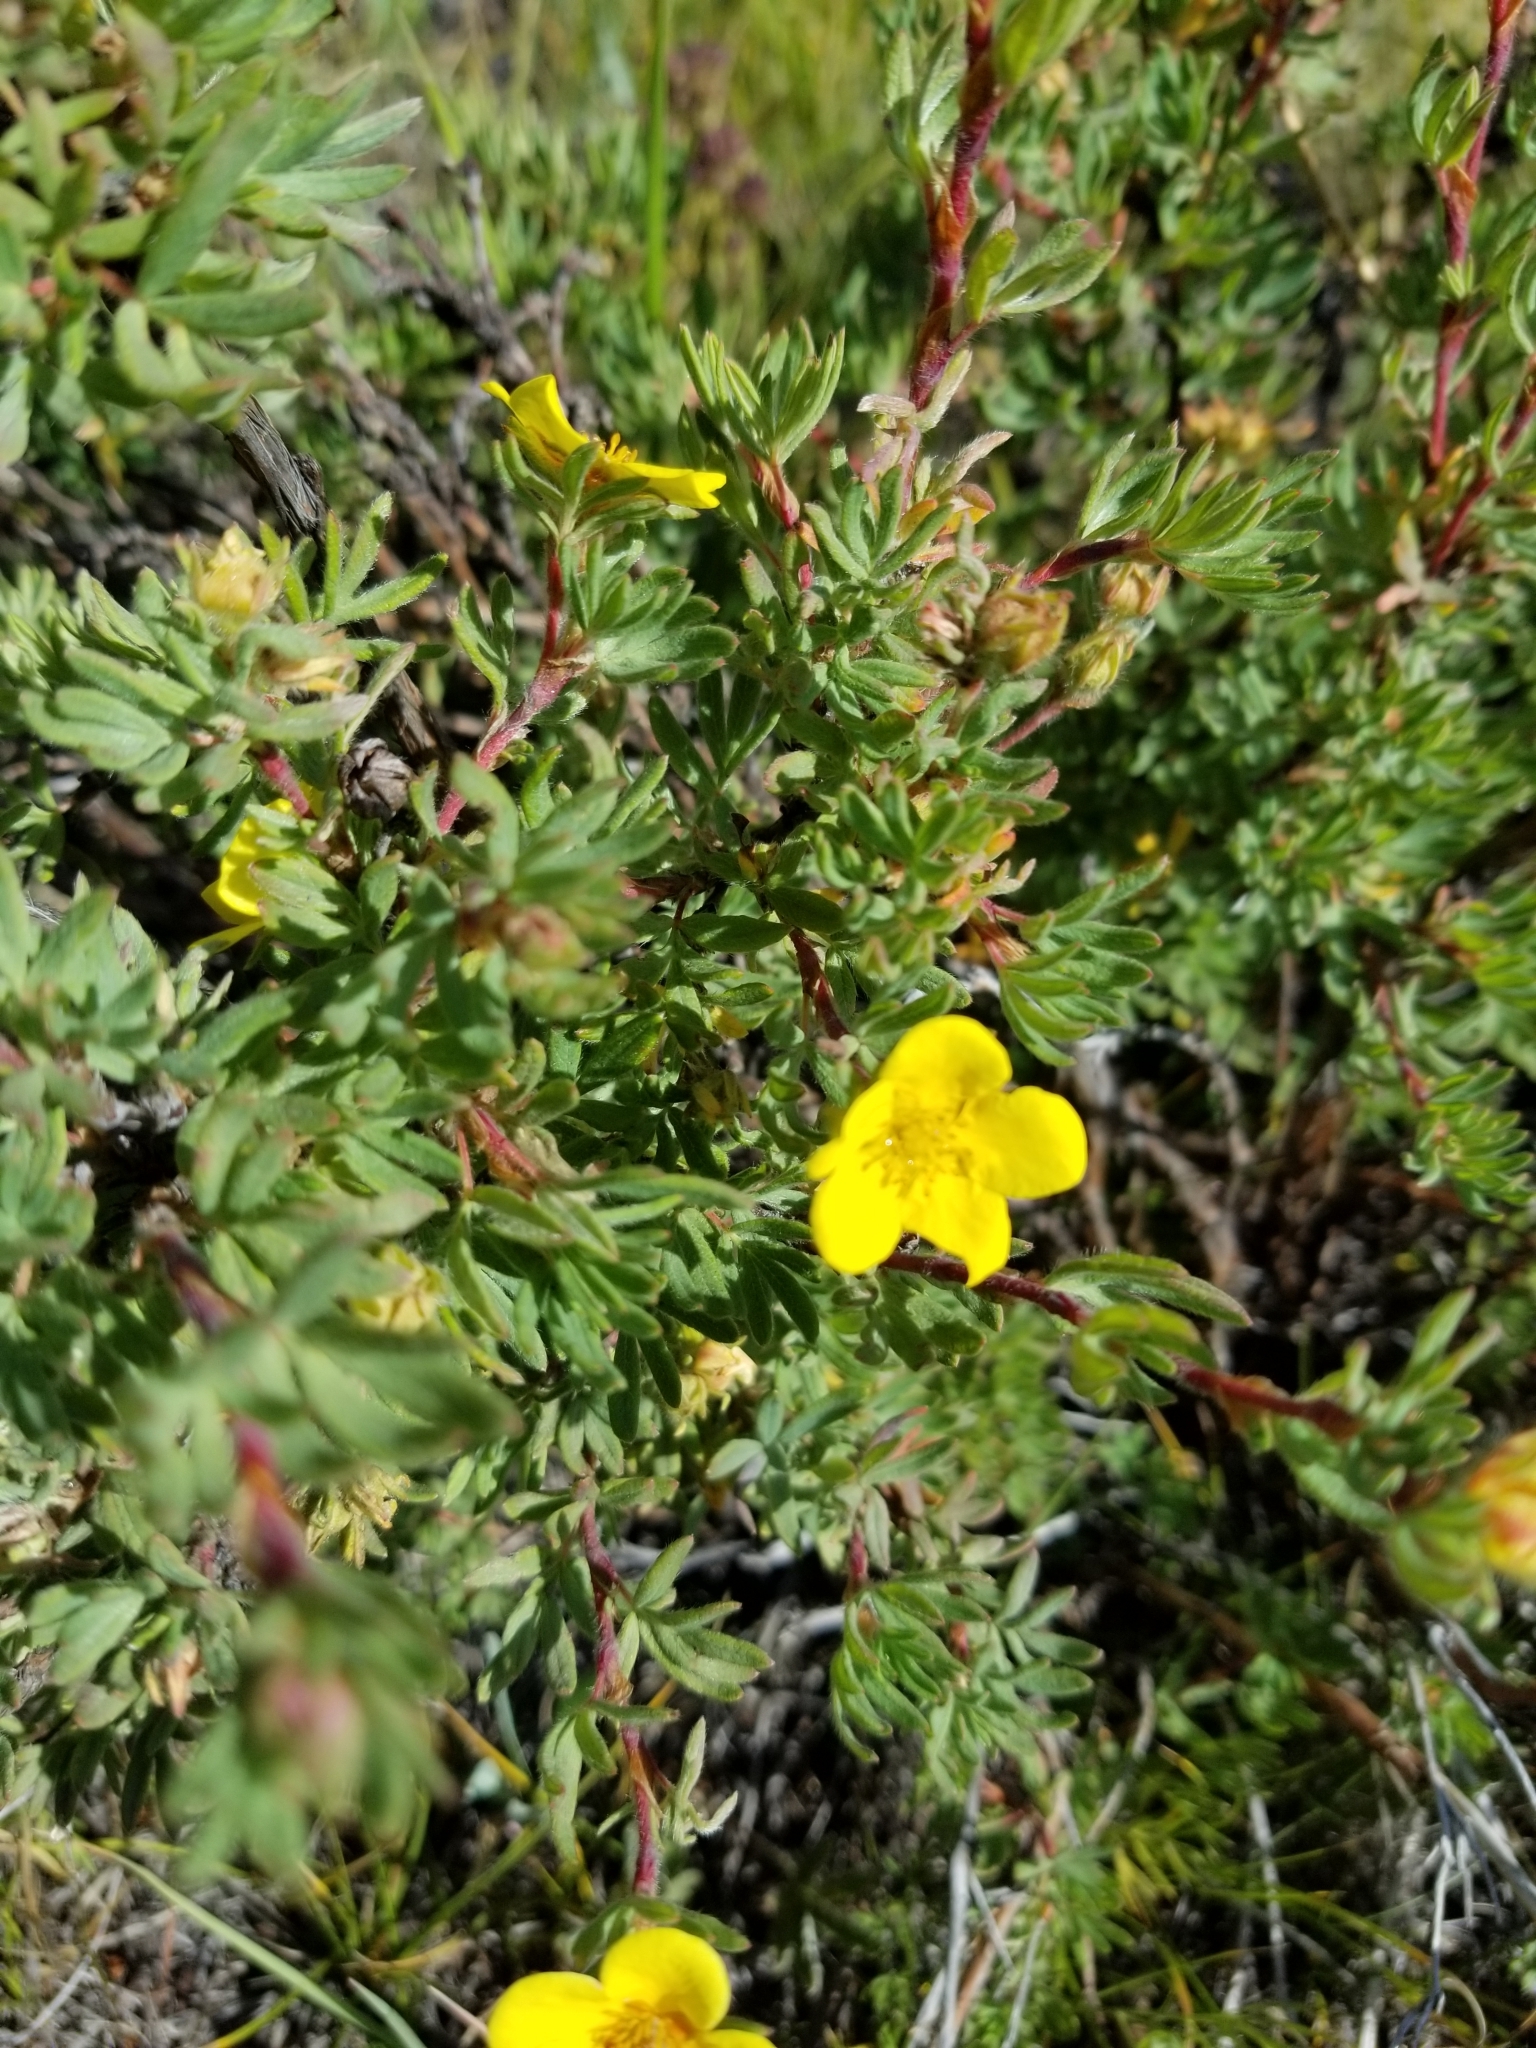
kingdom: Plantae
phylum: Tracheophyta
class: Magnoliopsida
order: Rosales
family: Rosaceae
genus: Dasiphora
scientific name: Dasiphora fruticosa
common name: Shrubby cinquefoil
